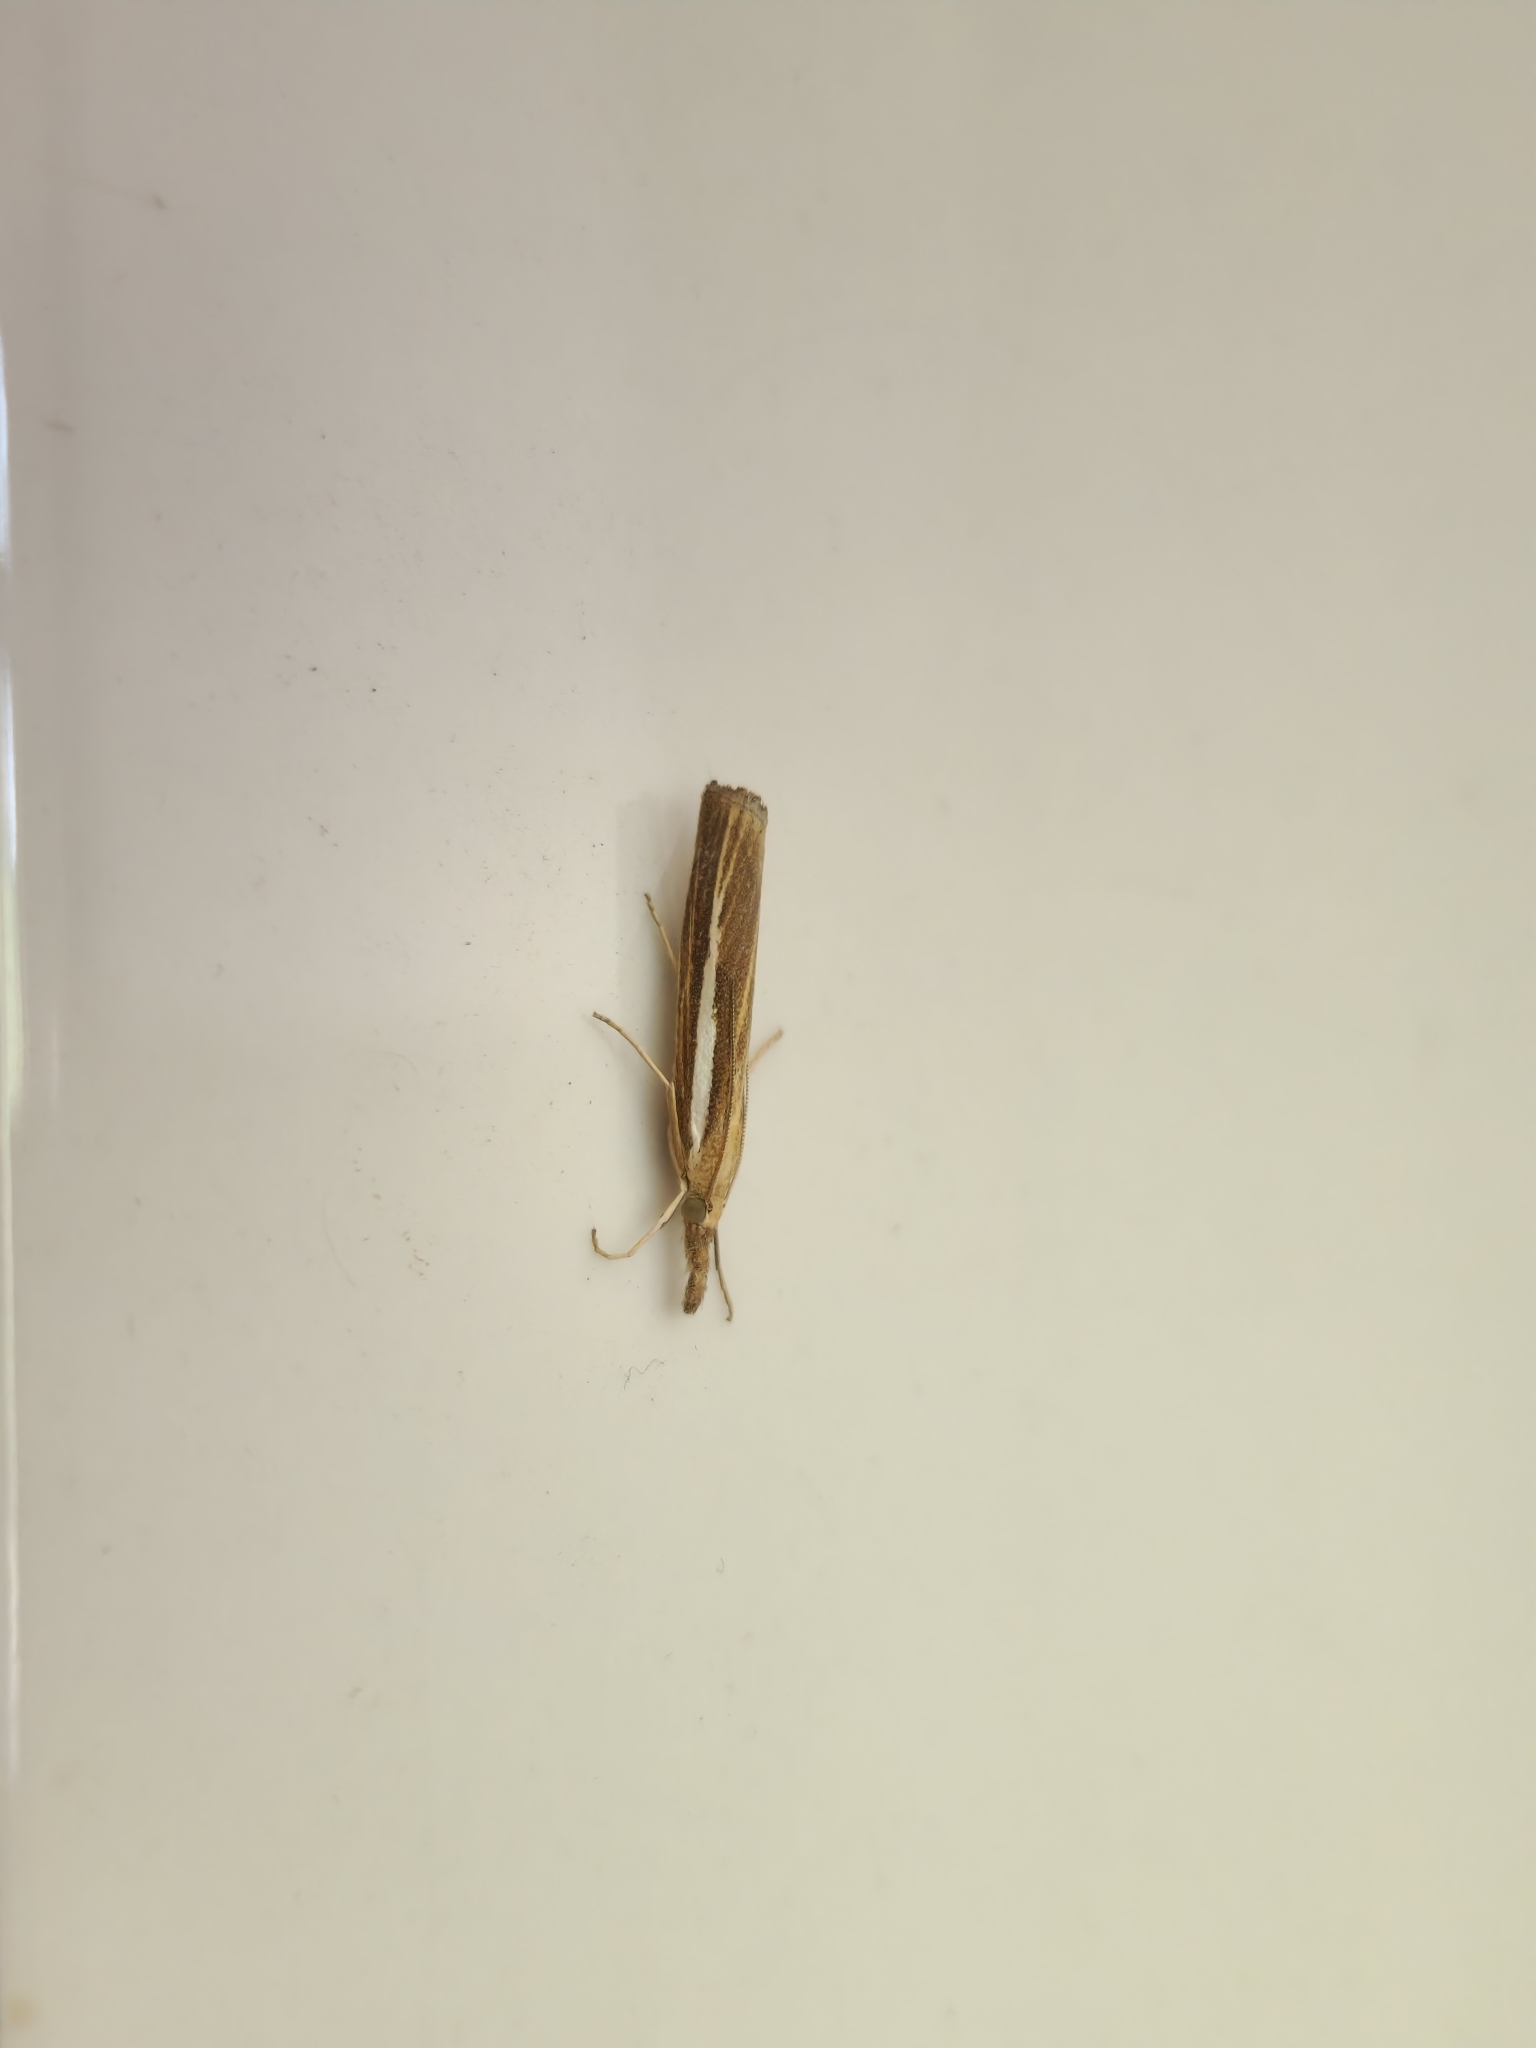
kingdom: Animalia
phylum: Arthropoda
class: Insecta
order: Lepidoptera
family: Crambidae
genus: Agriphila
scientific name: Agriphila tristellus
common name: Common grass-veneer
